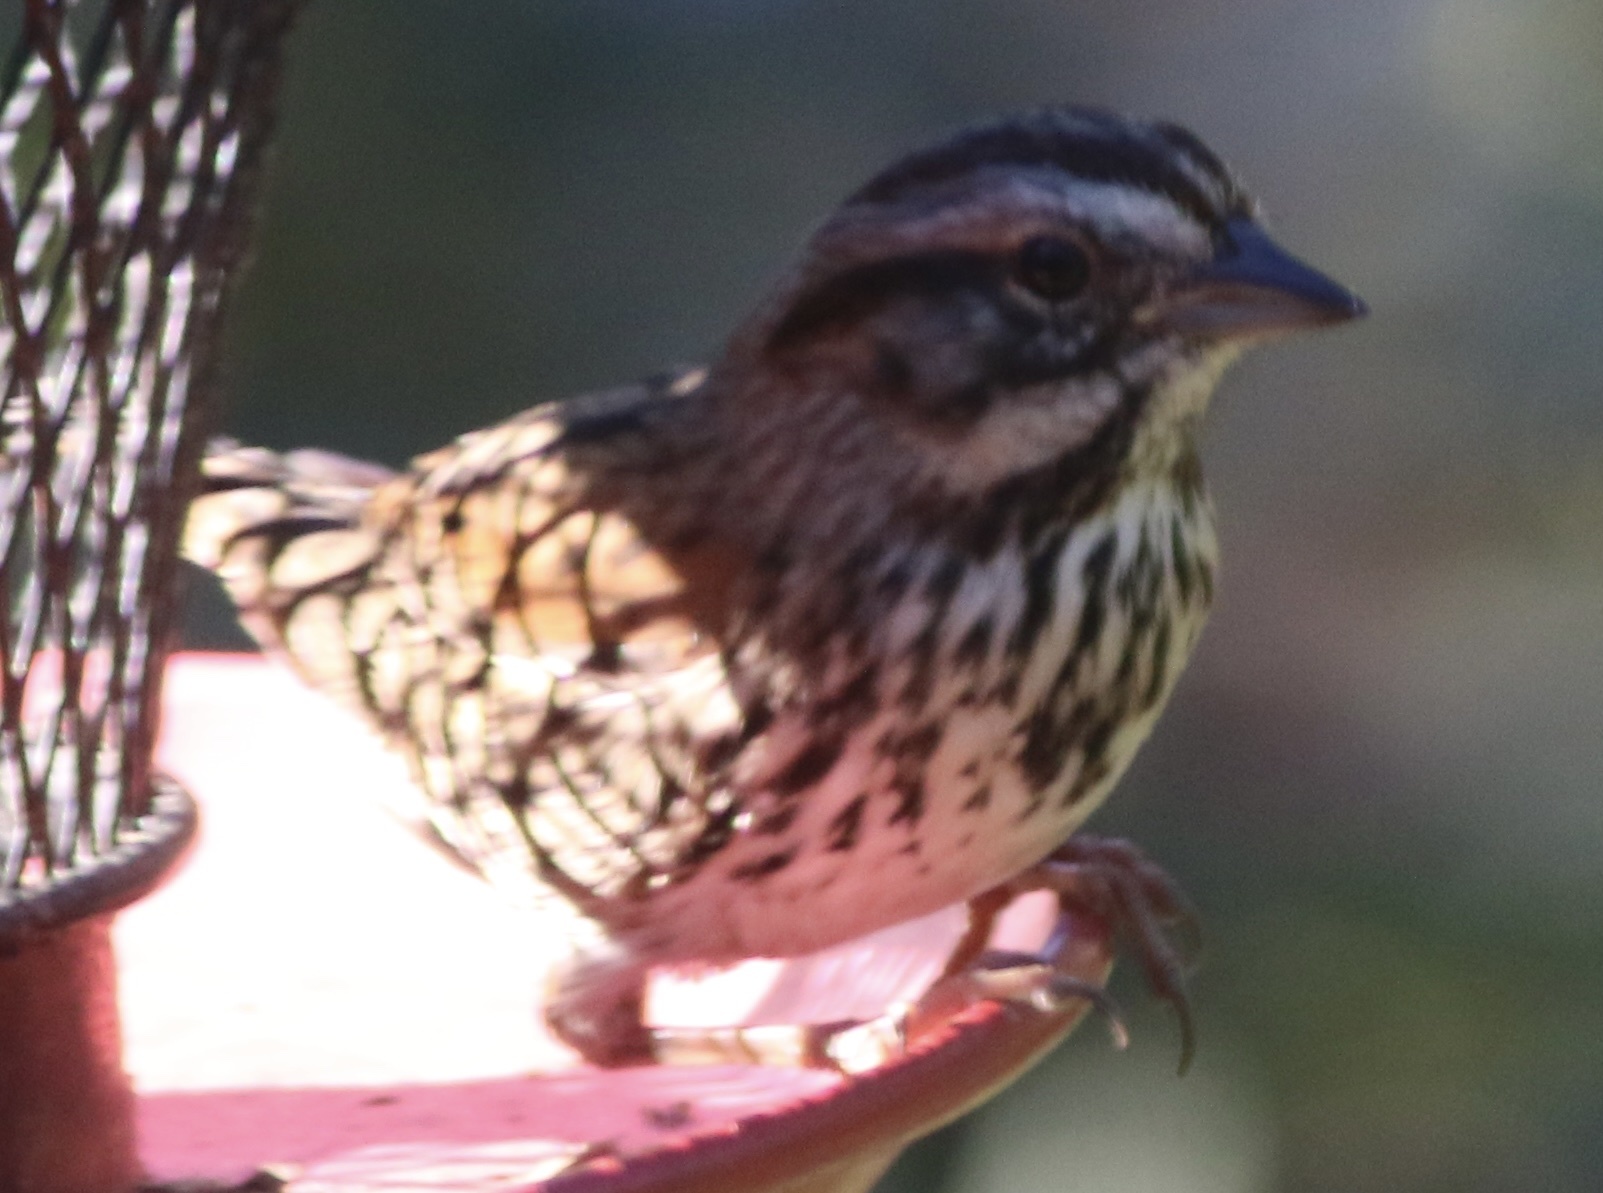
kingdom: Animalia
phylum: Chordata
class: Aves
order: Passeriformes
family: Passerellidae
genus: Melospiza
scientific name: Melospiza melodia
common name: Song sparrow
